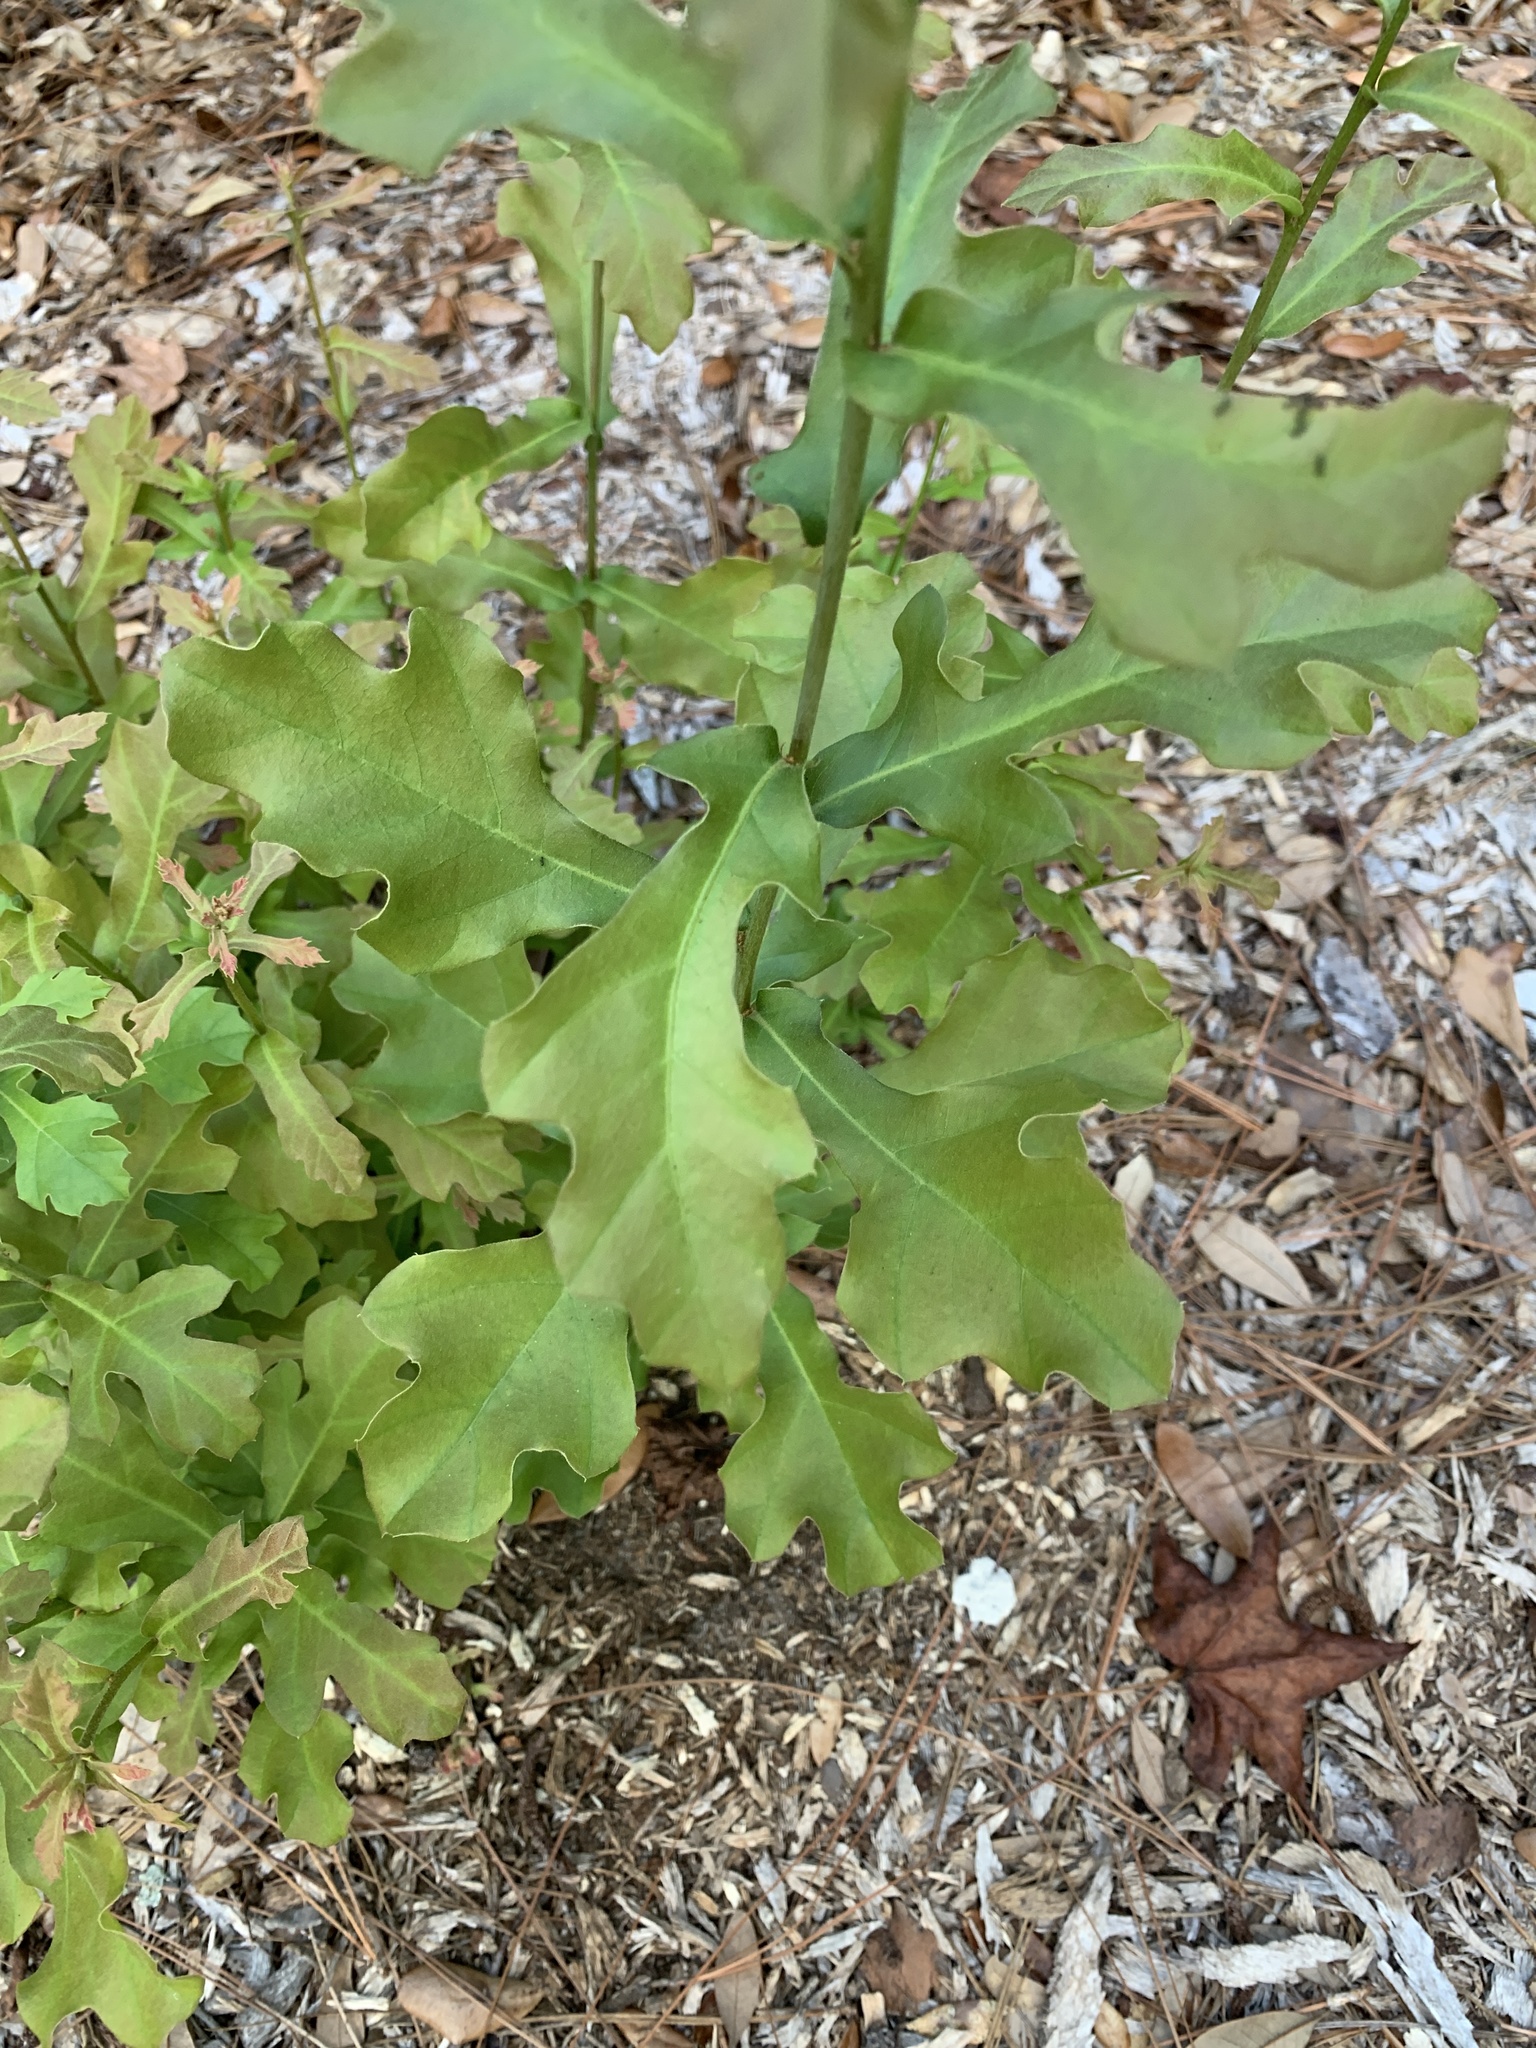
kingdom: Plantae
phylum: Tracheophyta
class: Magnoliopsida
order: Fagales
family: Fagaceae
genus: Quercus
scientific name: Quercus robur
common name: Pedunculate oak
